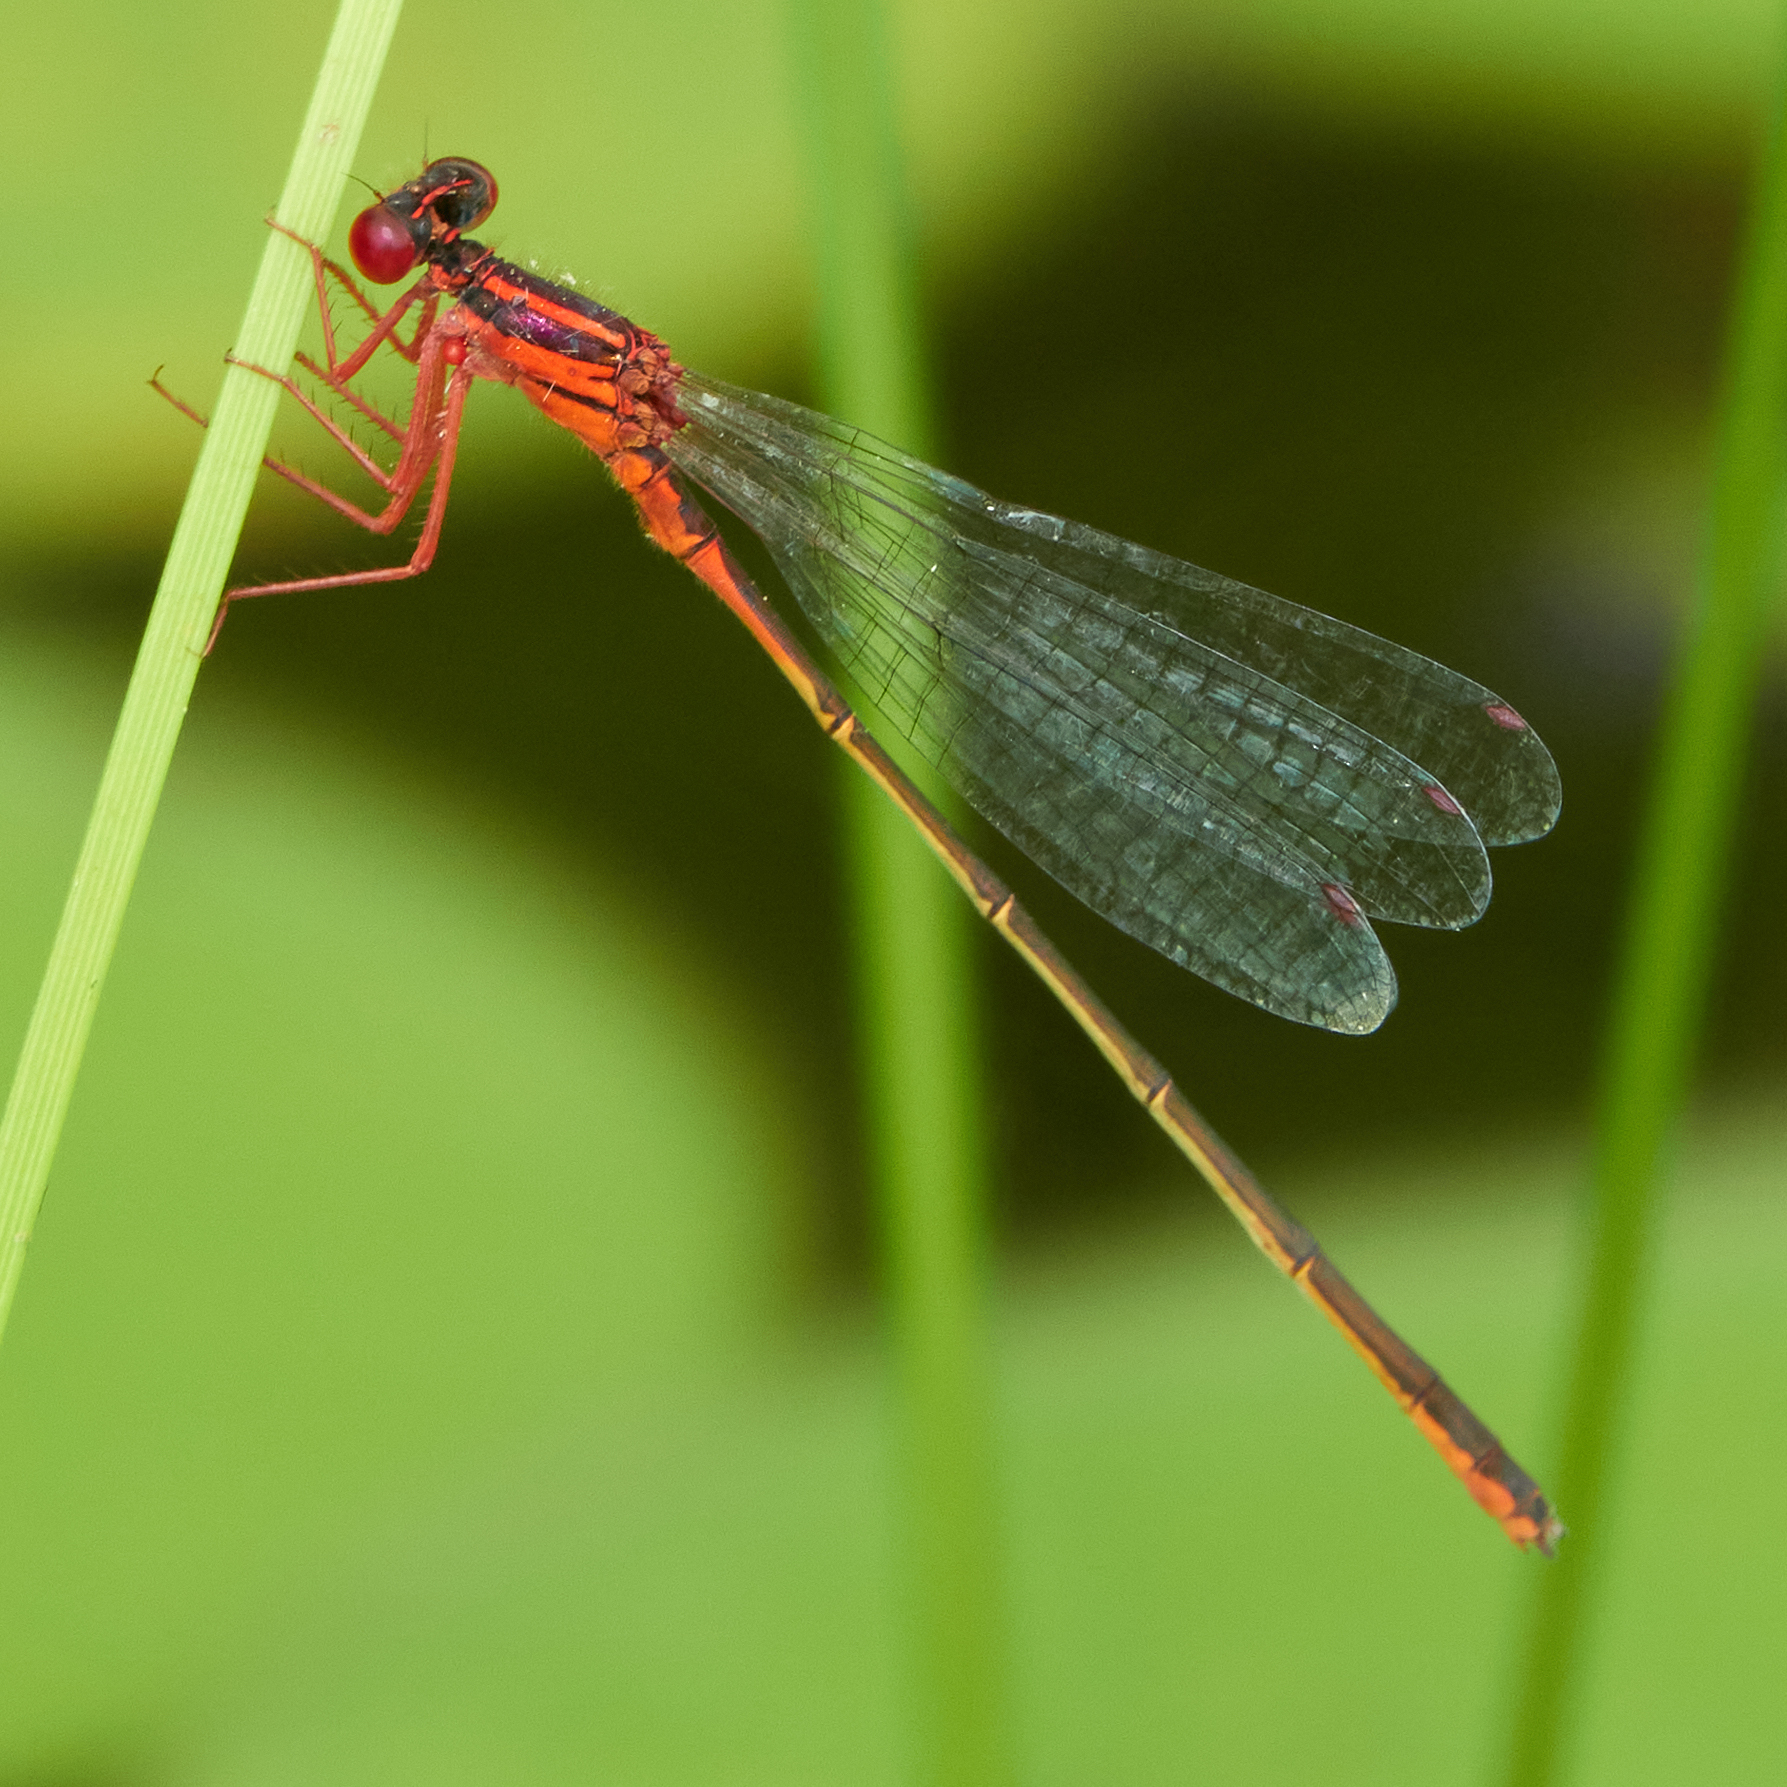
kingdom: Animalia
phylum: Arthropoda
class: Insecta
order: Odonata
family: Coenagrionidae
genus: Enallagma
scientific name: Enallagma pictum
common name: Scarlet bluet
